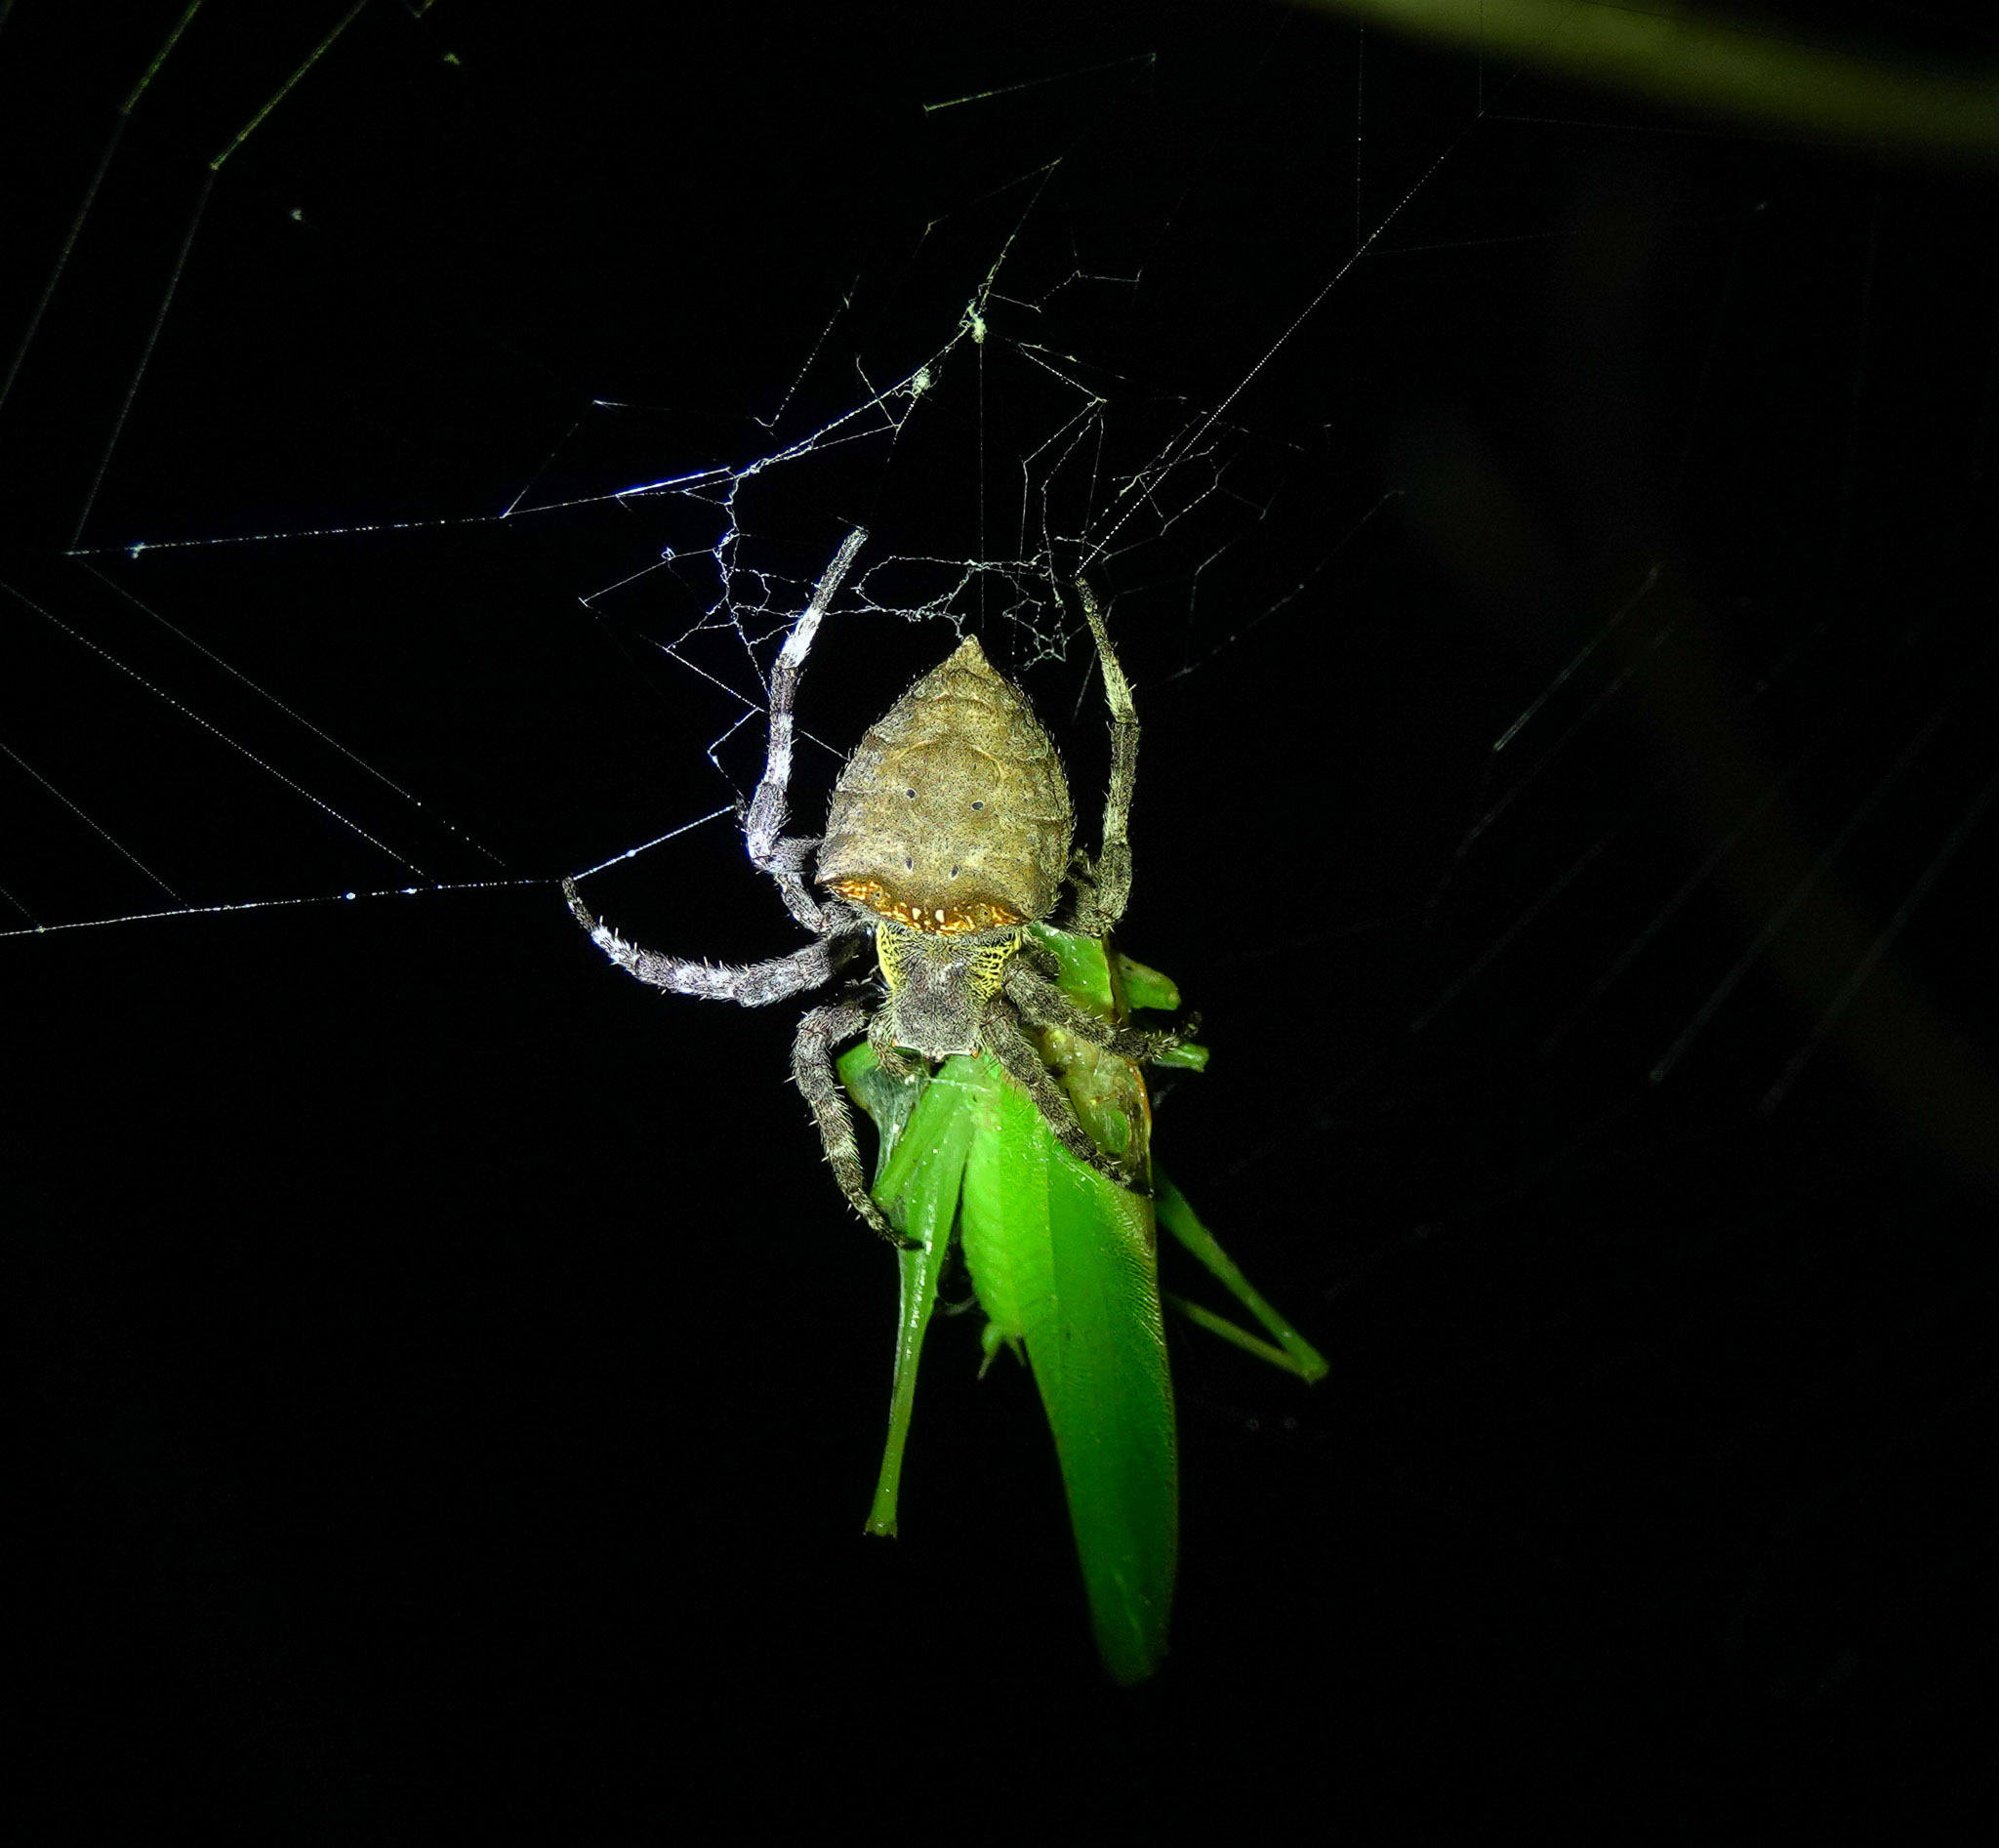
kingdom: Animalia
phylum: Arthropoda
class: Arachnida
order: Araneae
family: Araneidae
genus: Parawixia
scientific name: Parawixia dehaani
